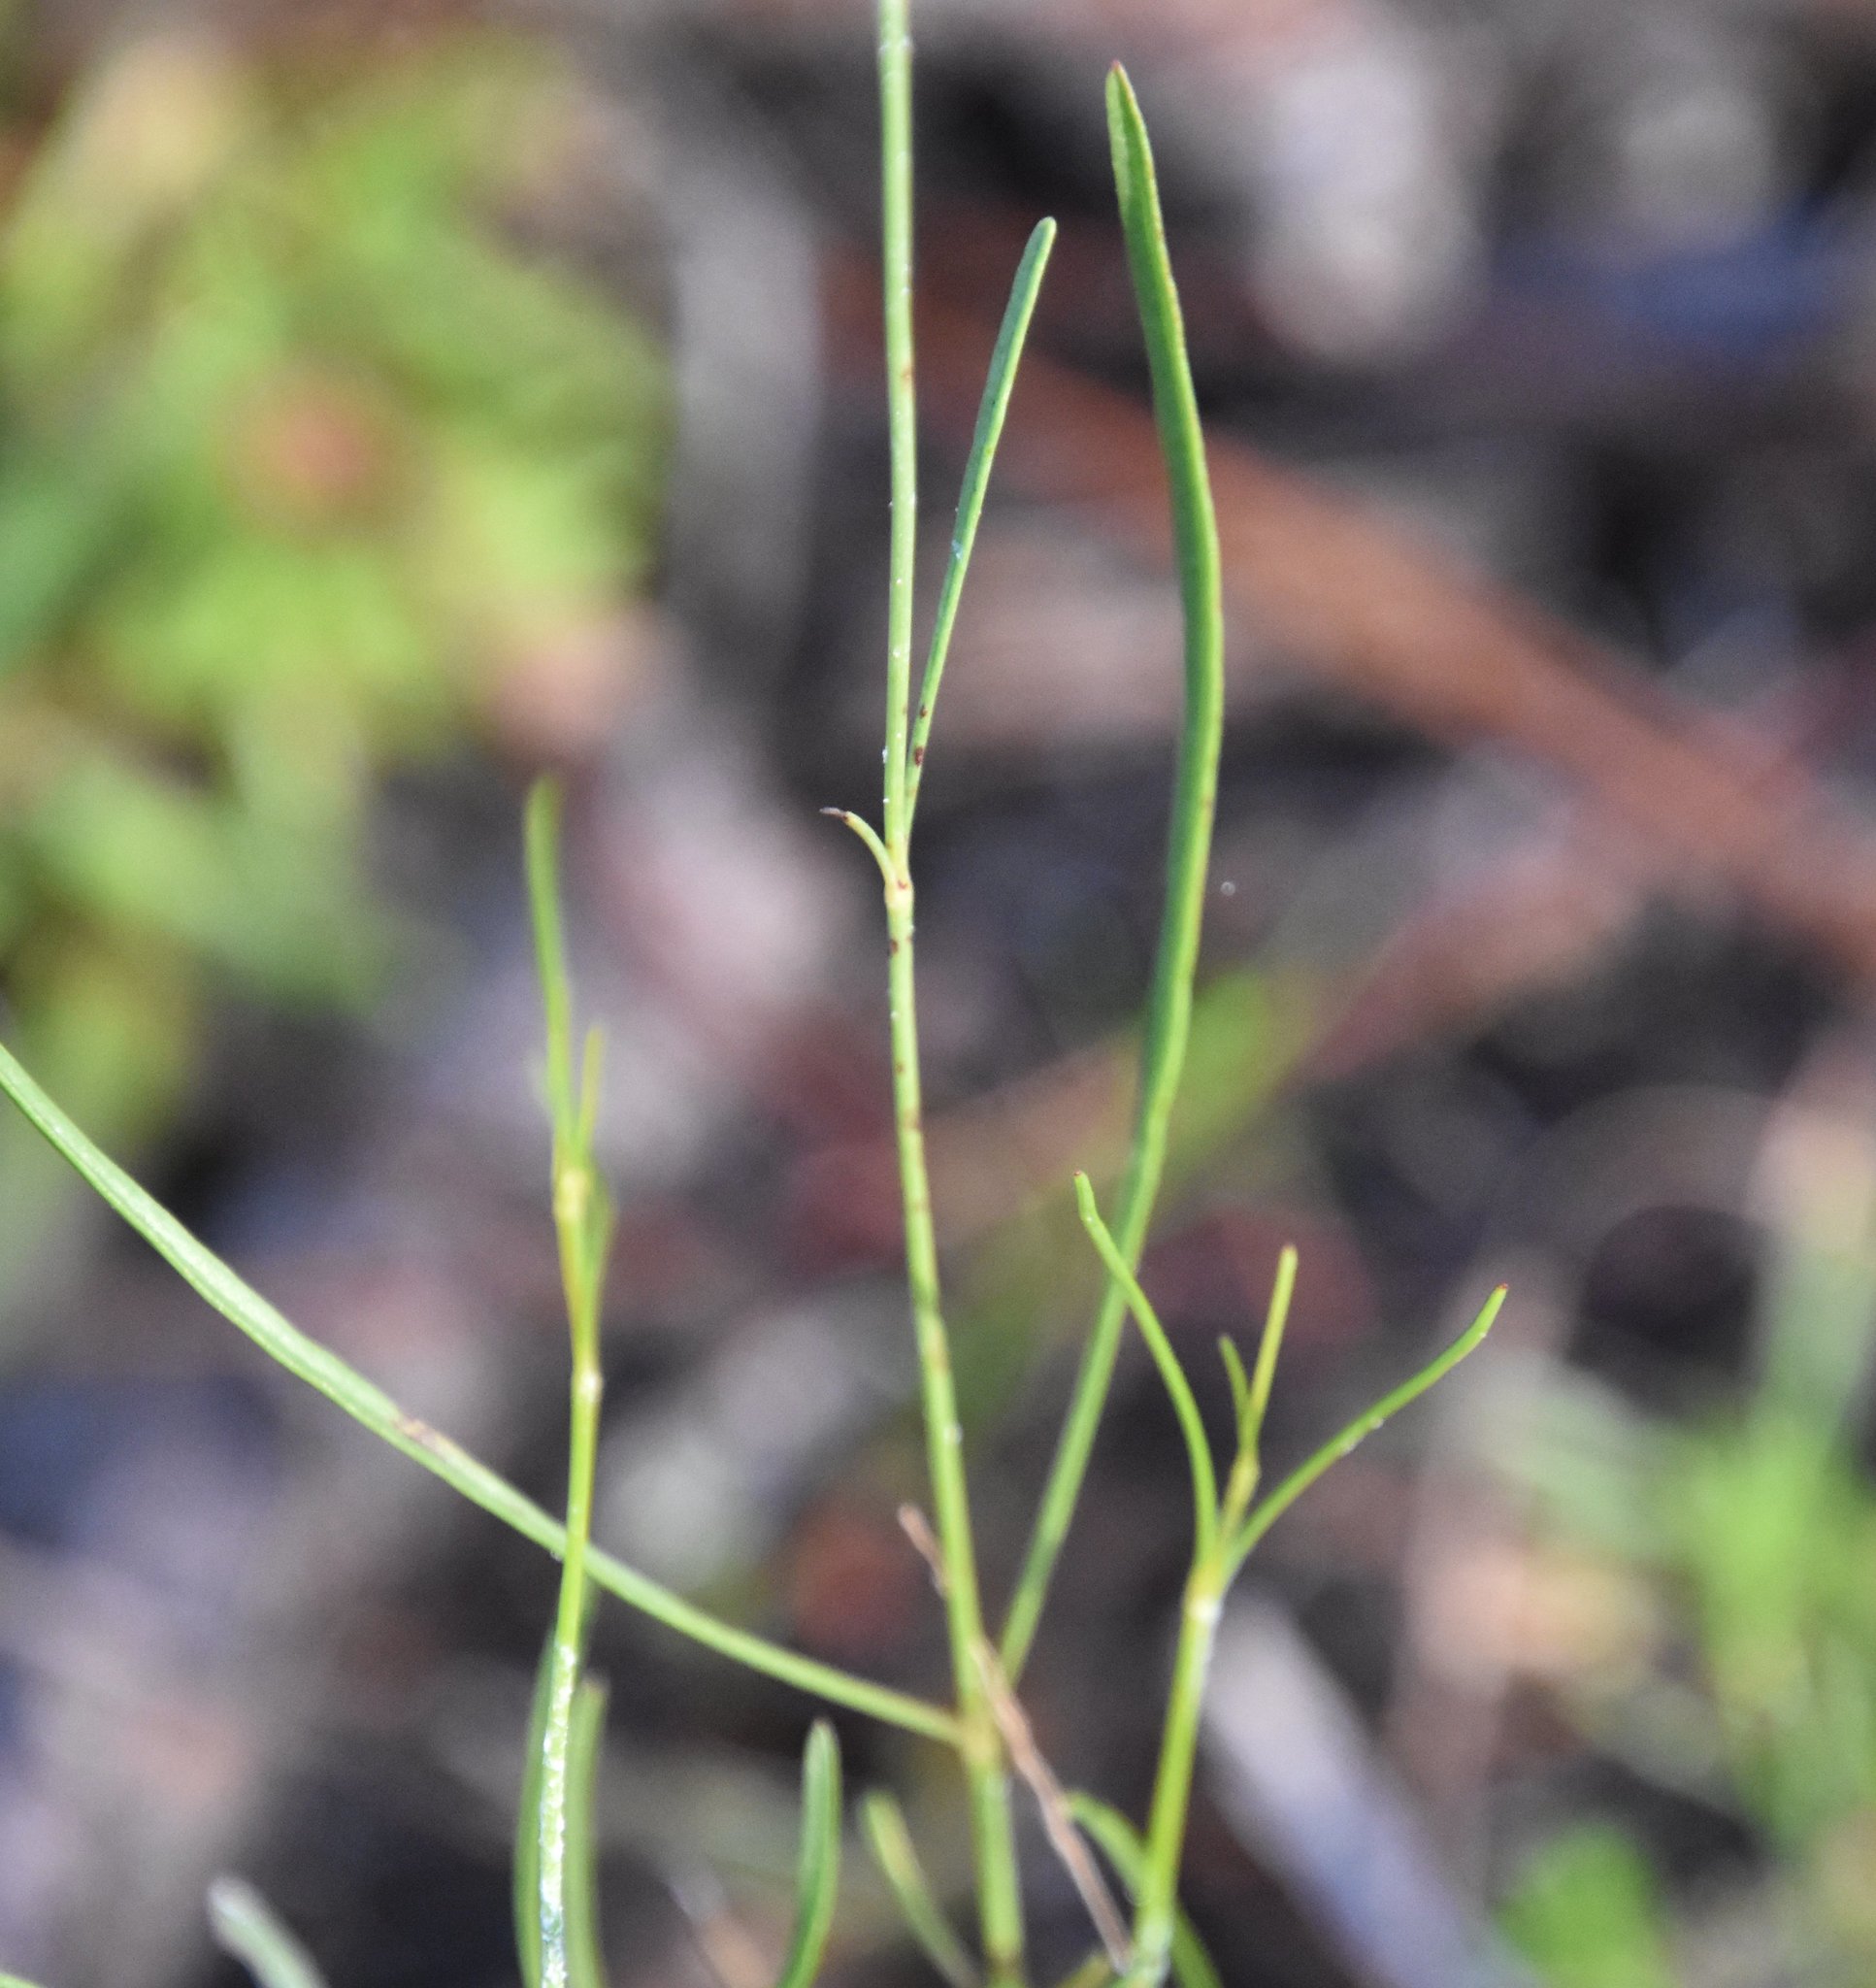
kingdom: Plantae
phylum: Tracheophyta
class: Magnoliopsida
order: Asterales
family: Asteraceae
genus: Coreopsis
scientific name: Coreopsis gladiata
